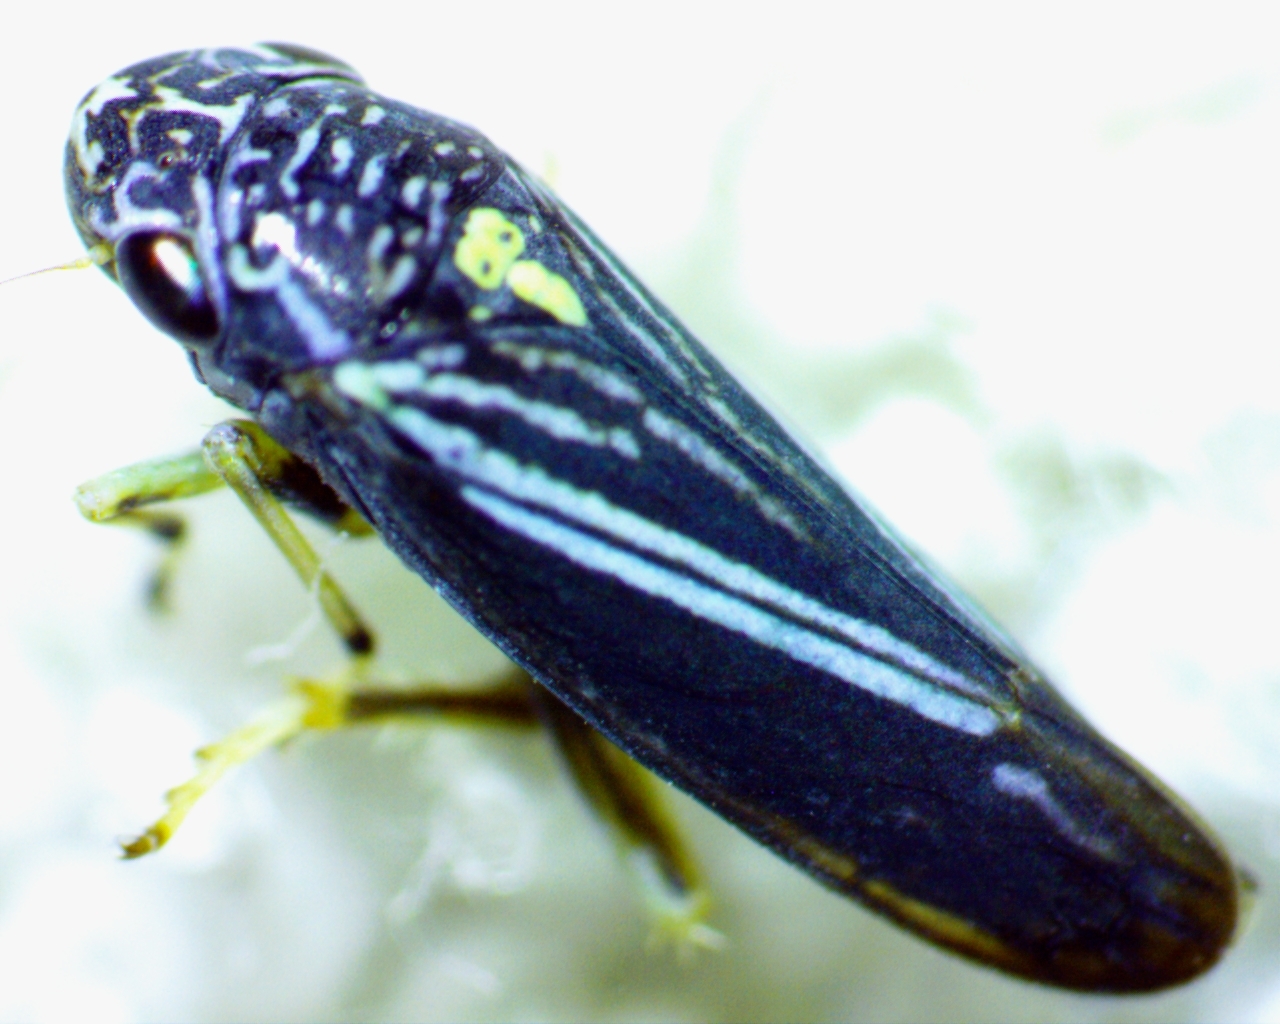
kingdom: Animalia
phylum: Arthropoda
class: Insecta
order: Hemiptera
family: Cicadellidae
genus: Neokolla
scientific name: Neokolla hieroglyphica
